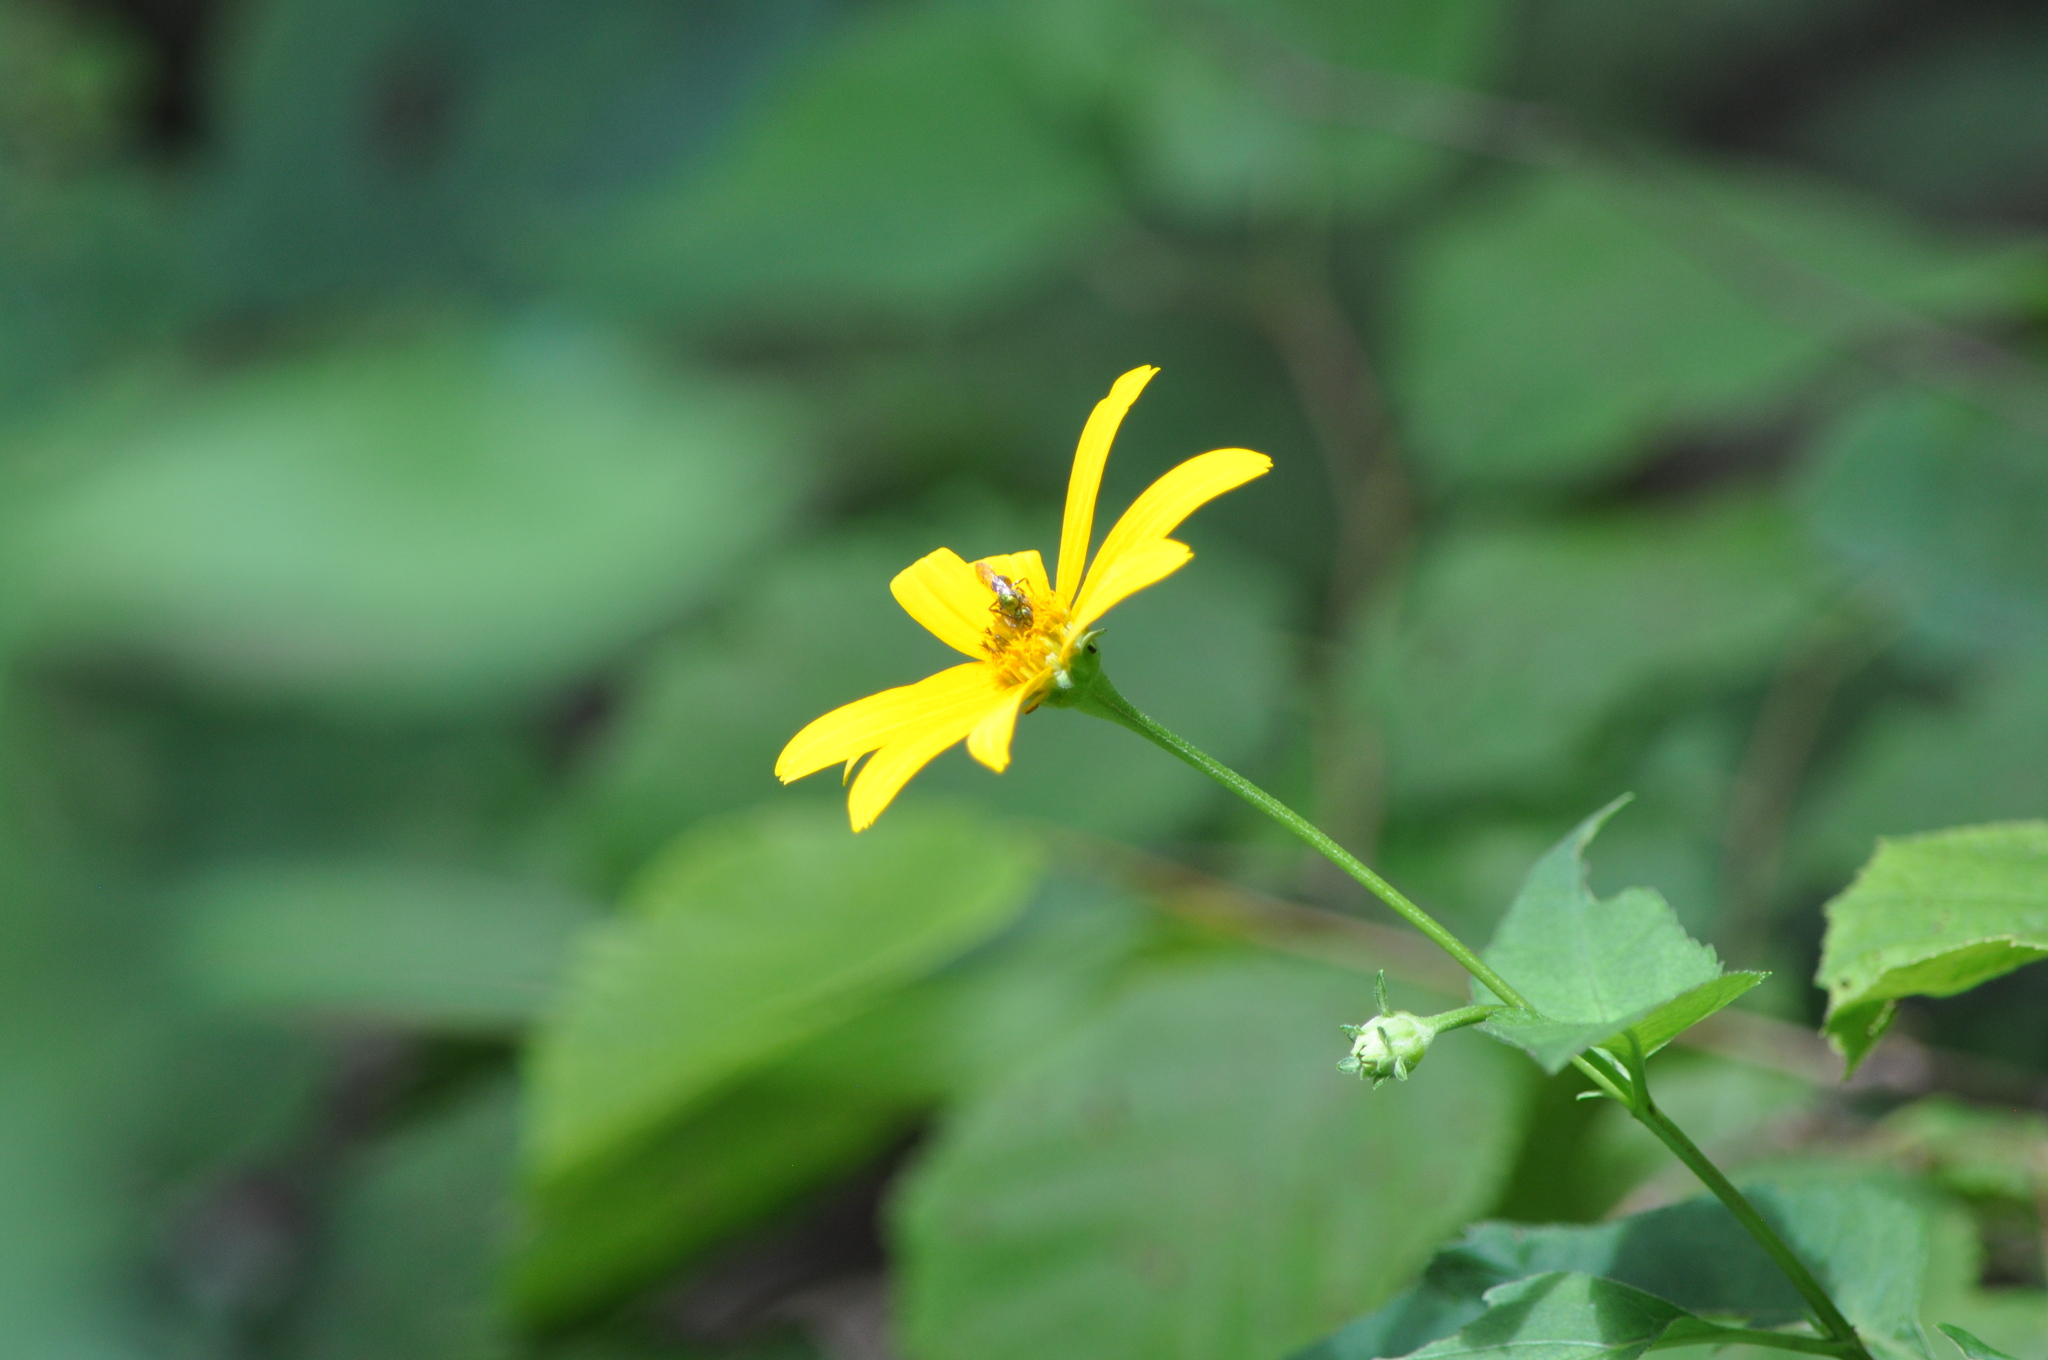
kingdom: Plantae
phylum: Tracheophyta
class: Magnoliopsida
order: Asterales
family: Asteraceae
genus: Heliopsis
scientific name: Heliopsis helianthoides
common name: False sunflower
